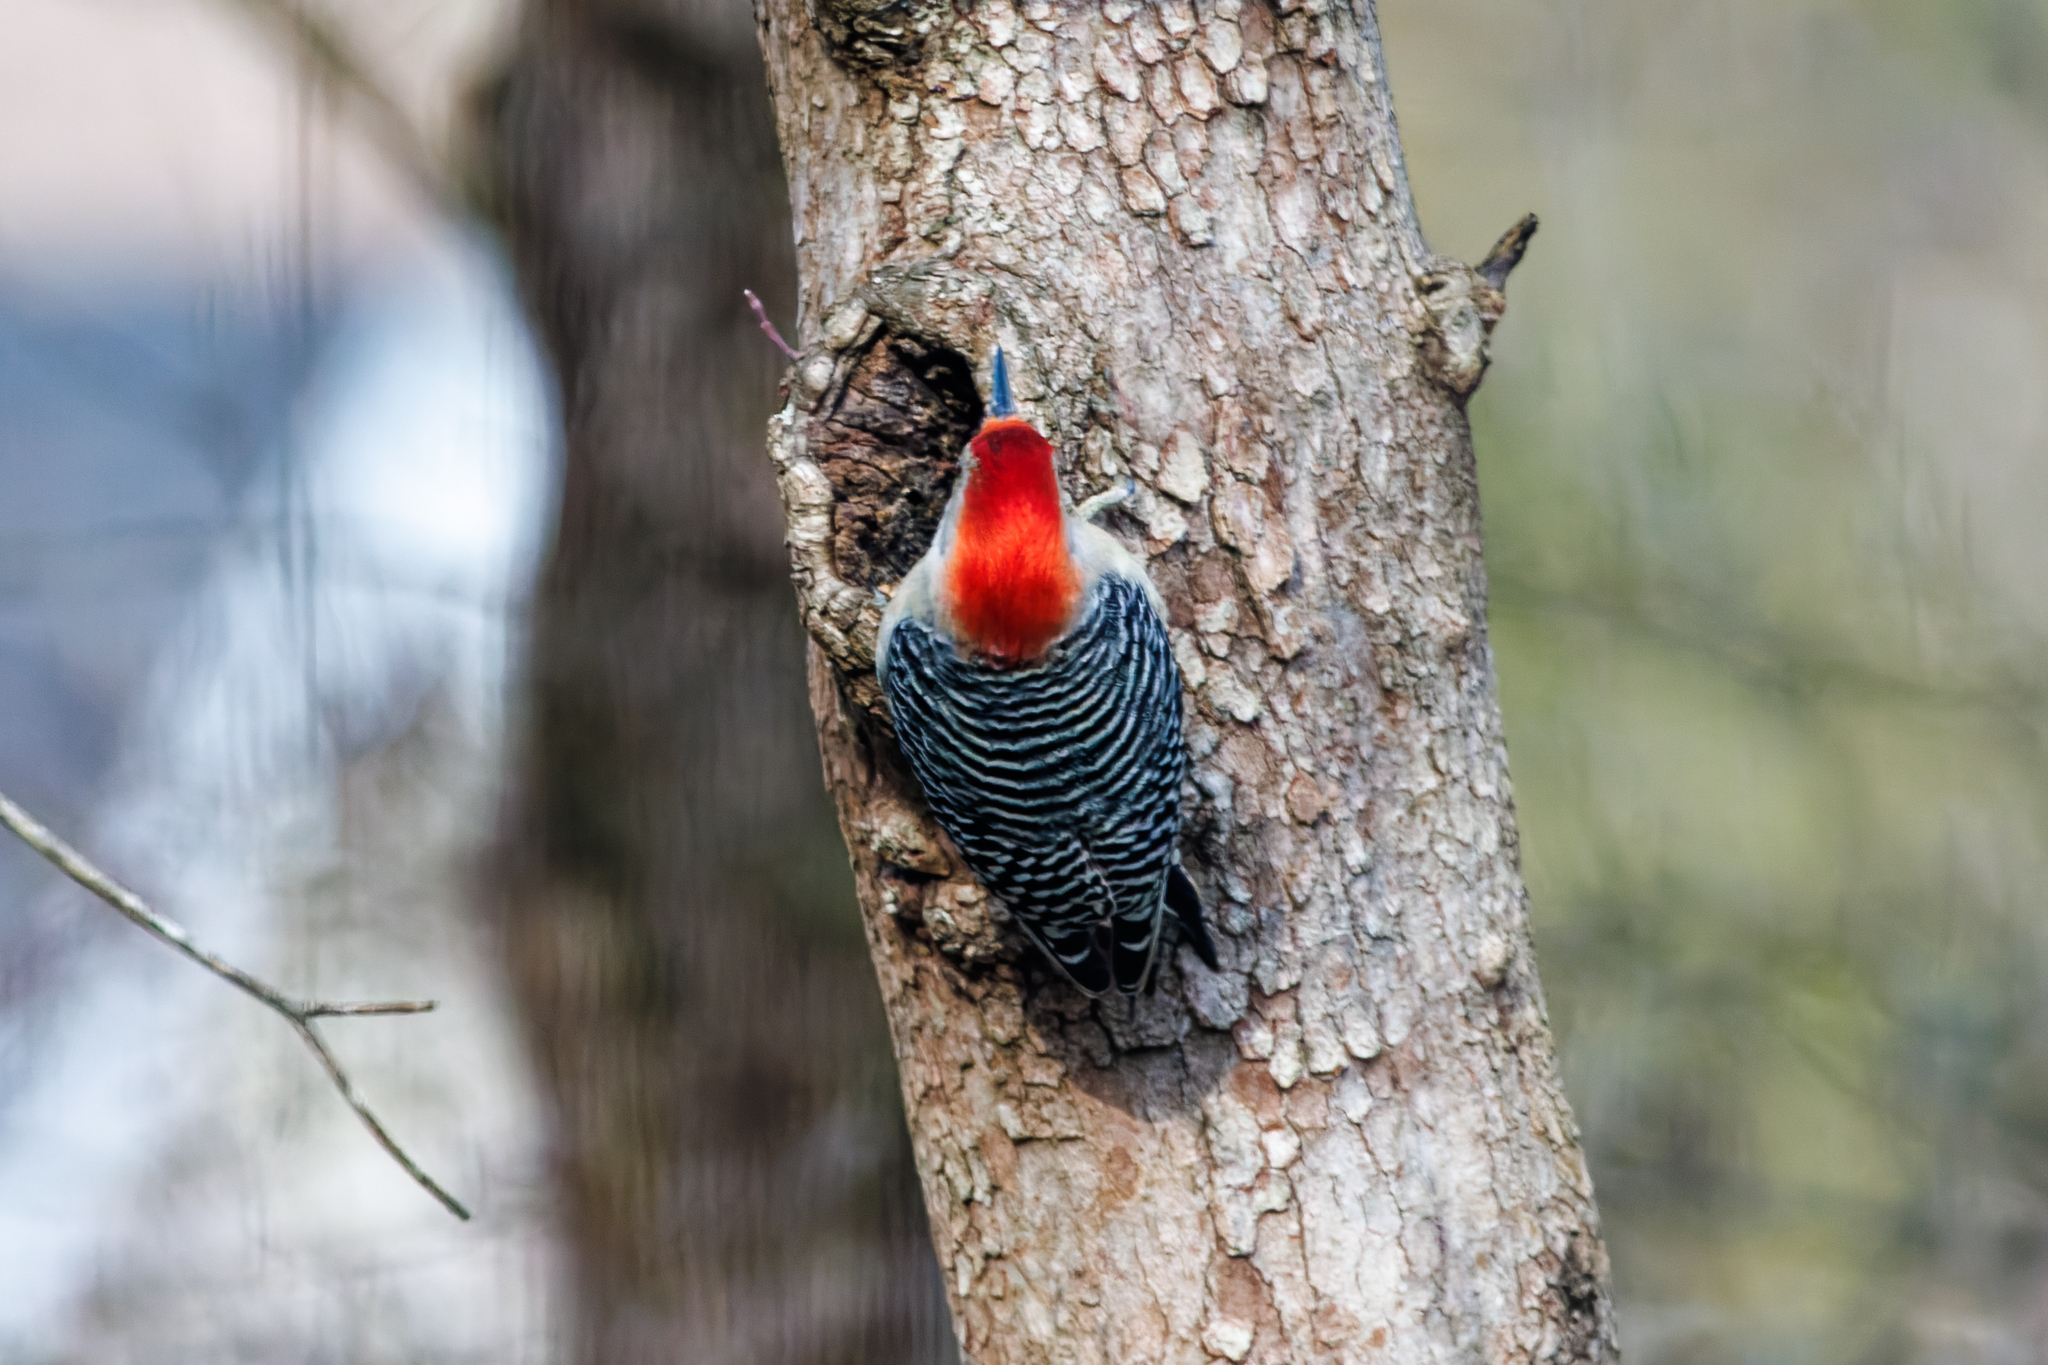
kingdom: Animalia
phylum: Chordata
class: Aves
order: Piciformes
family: Picidae
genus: Melanerpes
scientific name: Melanerpes carolinus
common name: Red-bellied woodpecker
